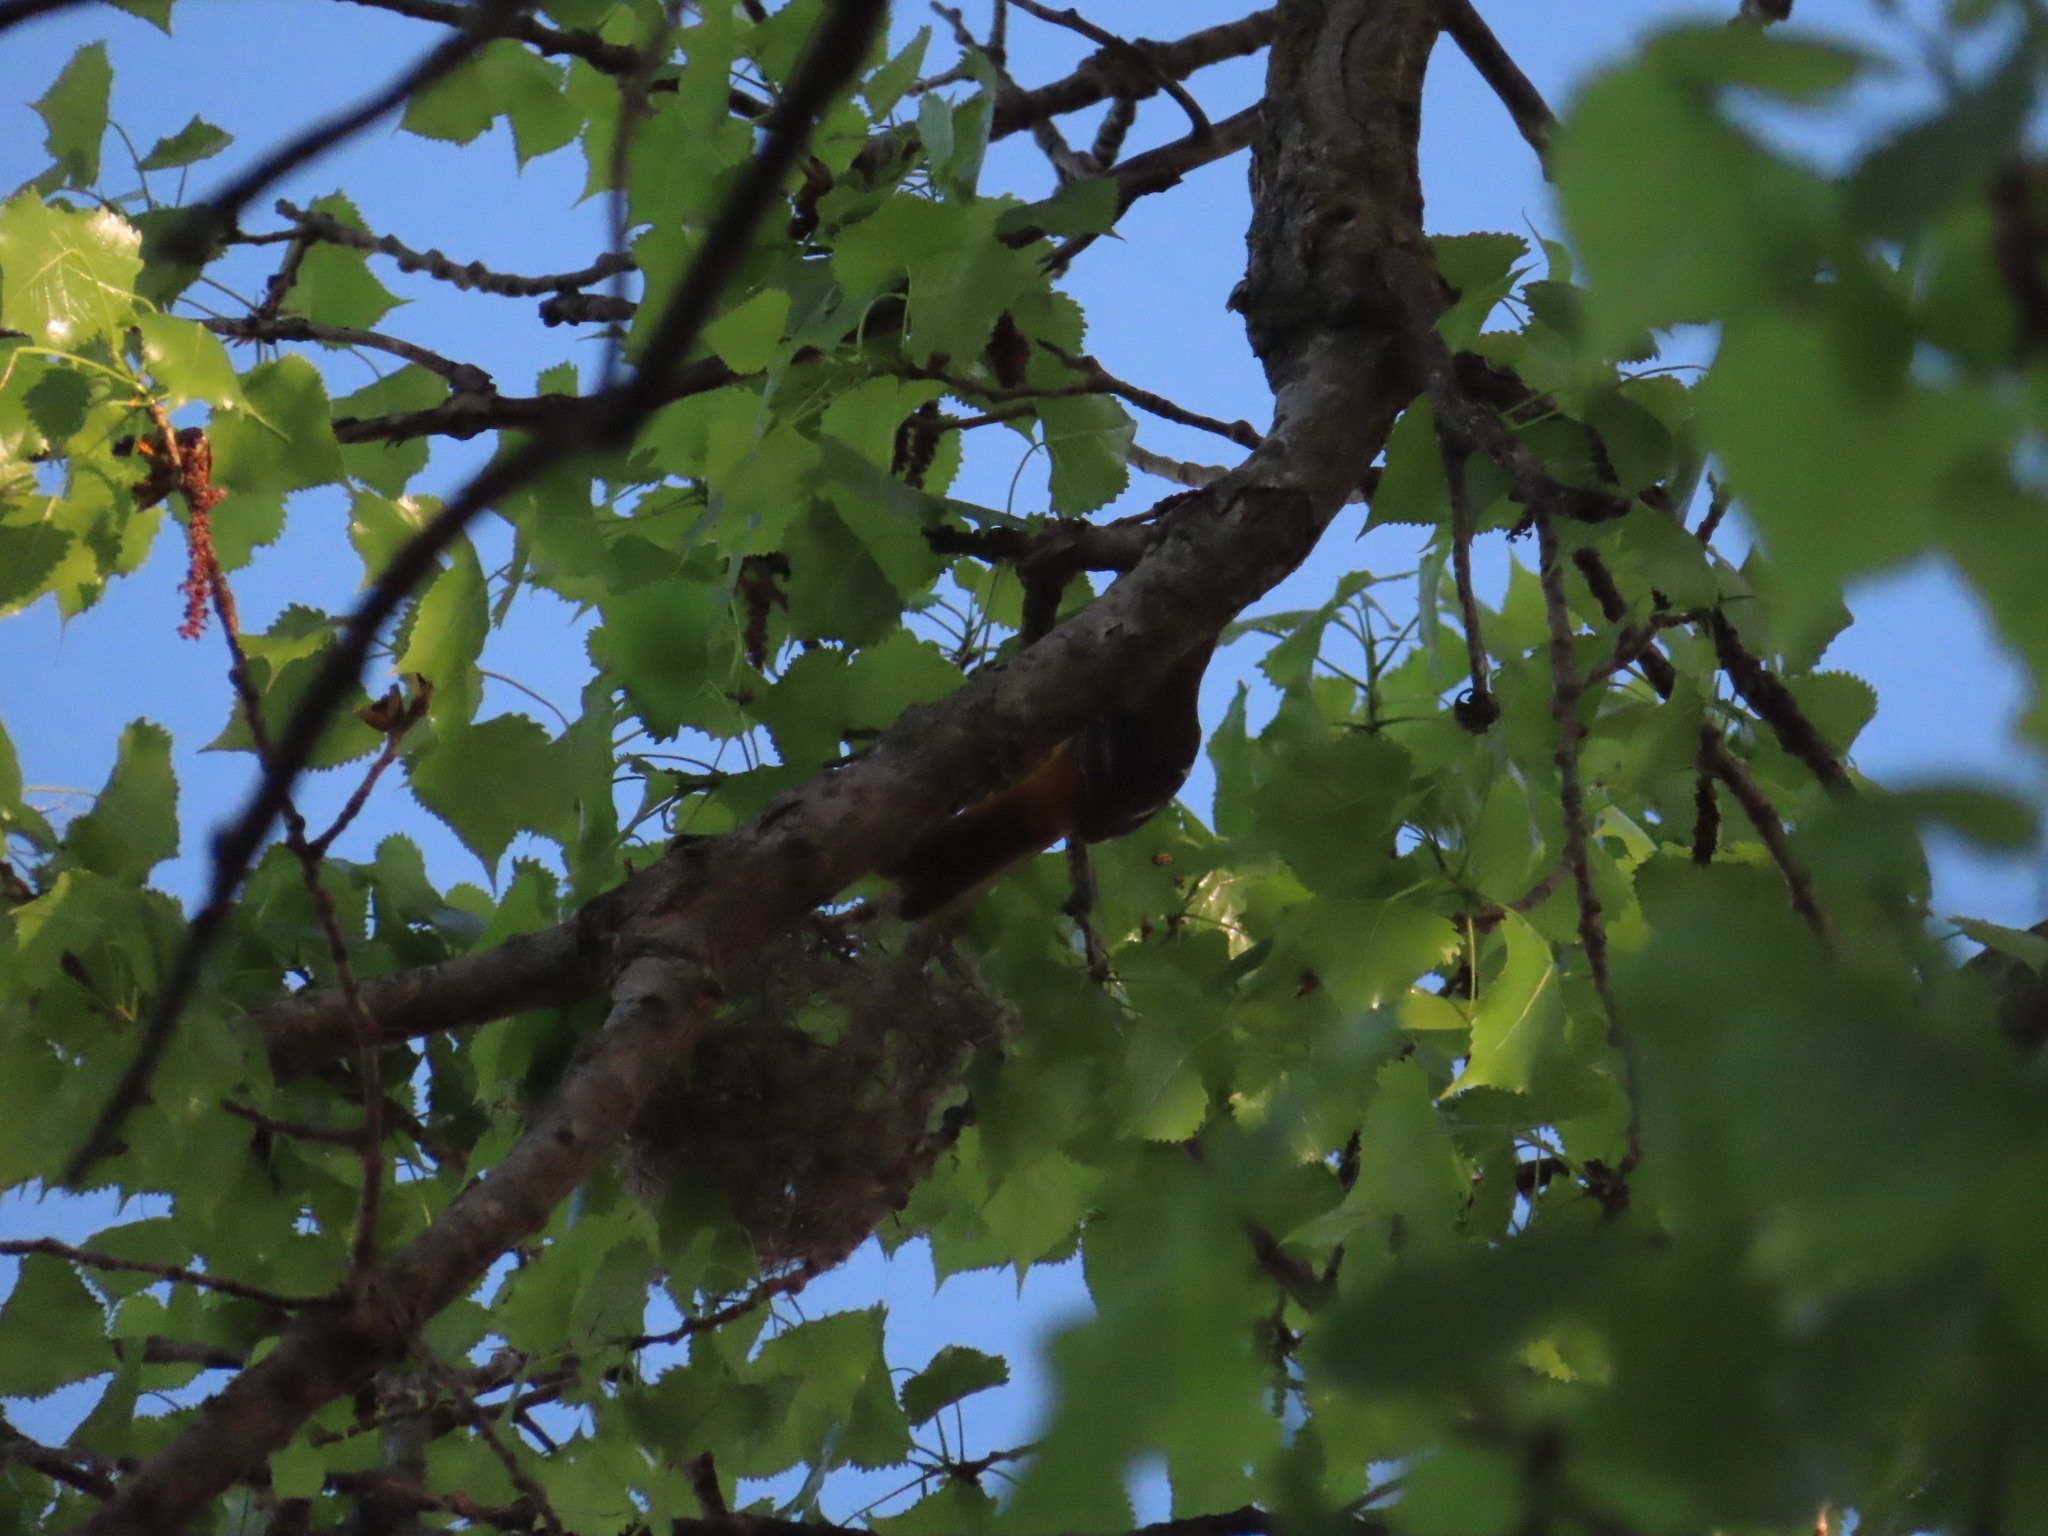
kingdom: Animalia
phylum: Chordata
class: Aves
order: Passeriformes
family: Icteridae
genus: Icterus
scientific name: Icterus galbula
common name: Baltimore oriole
